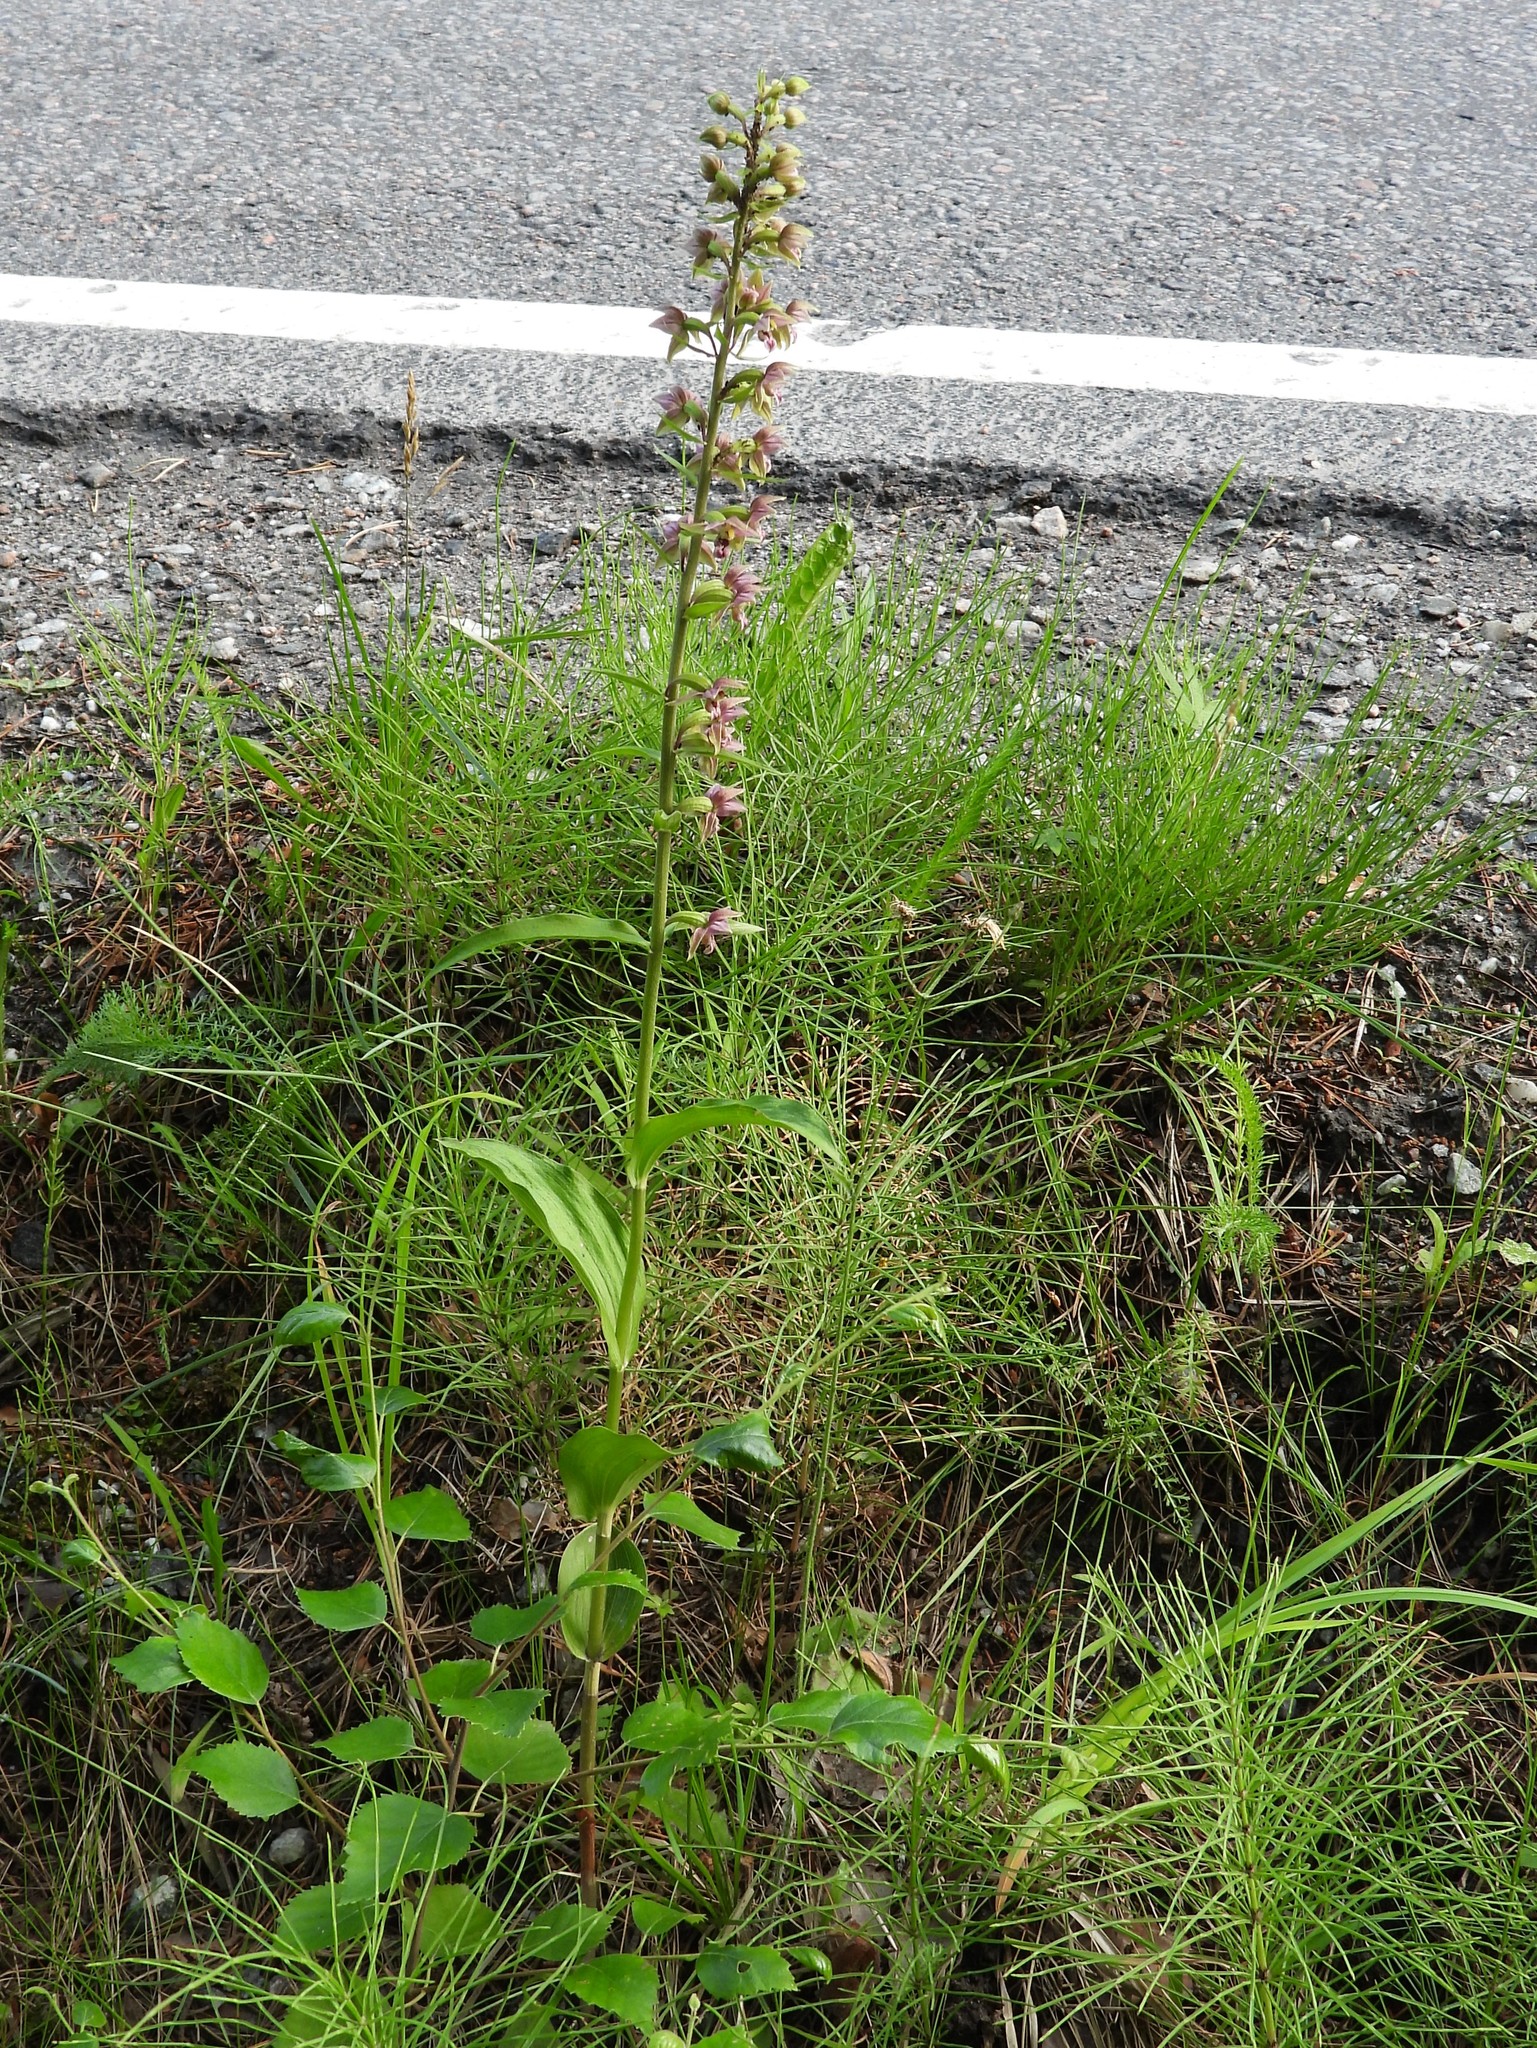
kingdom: Plantae
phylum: Tracheophyta
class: Liliopsida
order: Asparagales
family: Orchidaceae
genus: Epipactis
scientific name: Epipactis helleborine
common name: Broad-leaved helleborine
